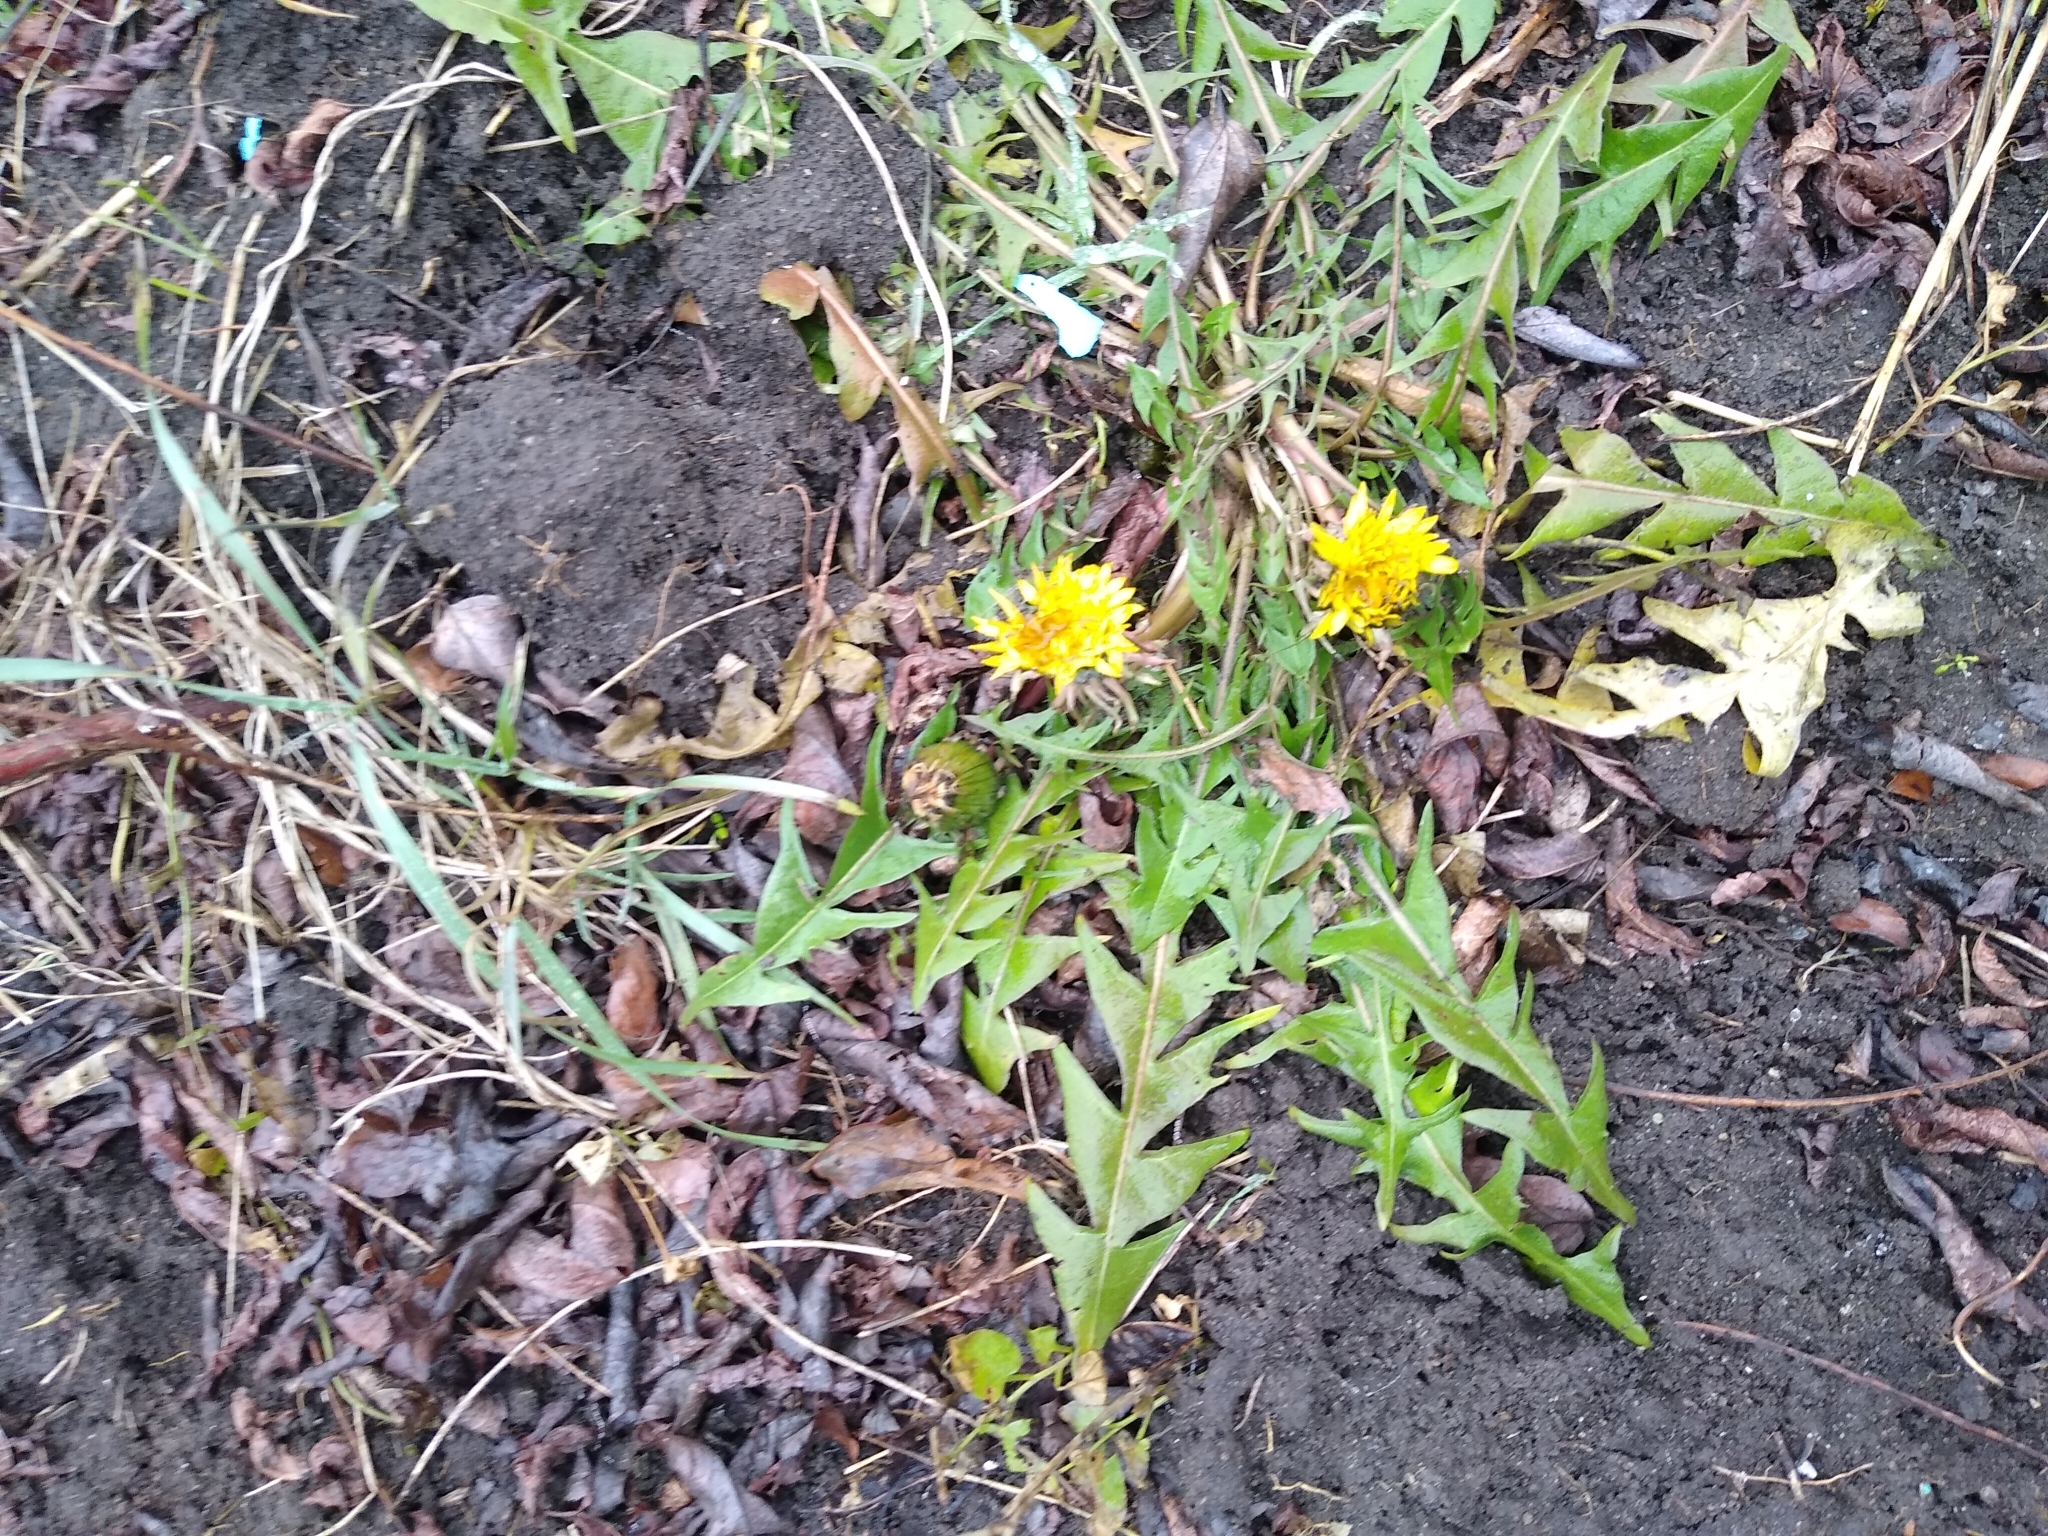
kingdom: Plantae
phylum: Tracheophyta
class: Magnoliopsida
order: Asterales
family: Asteraceae
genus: Taraxacum
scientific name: Taraxacum officinale
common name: Common dandelion
